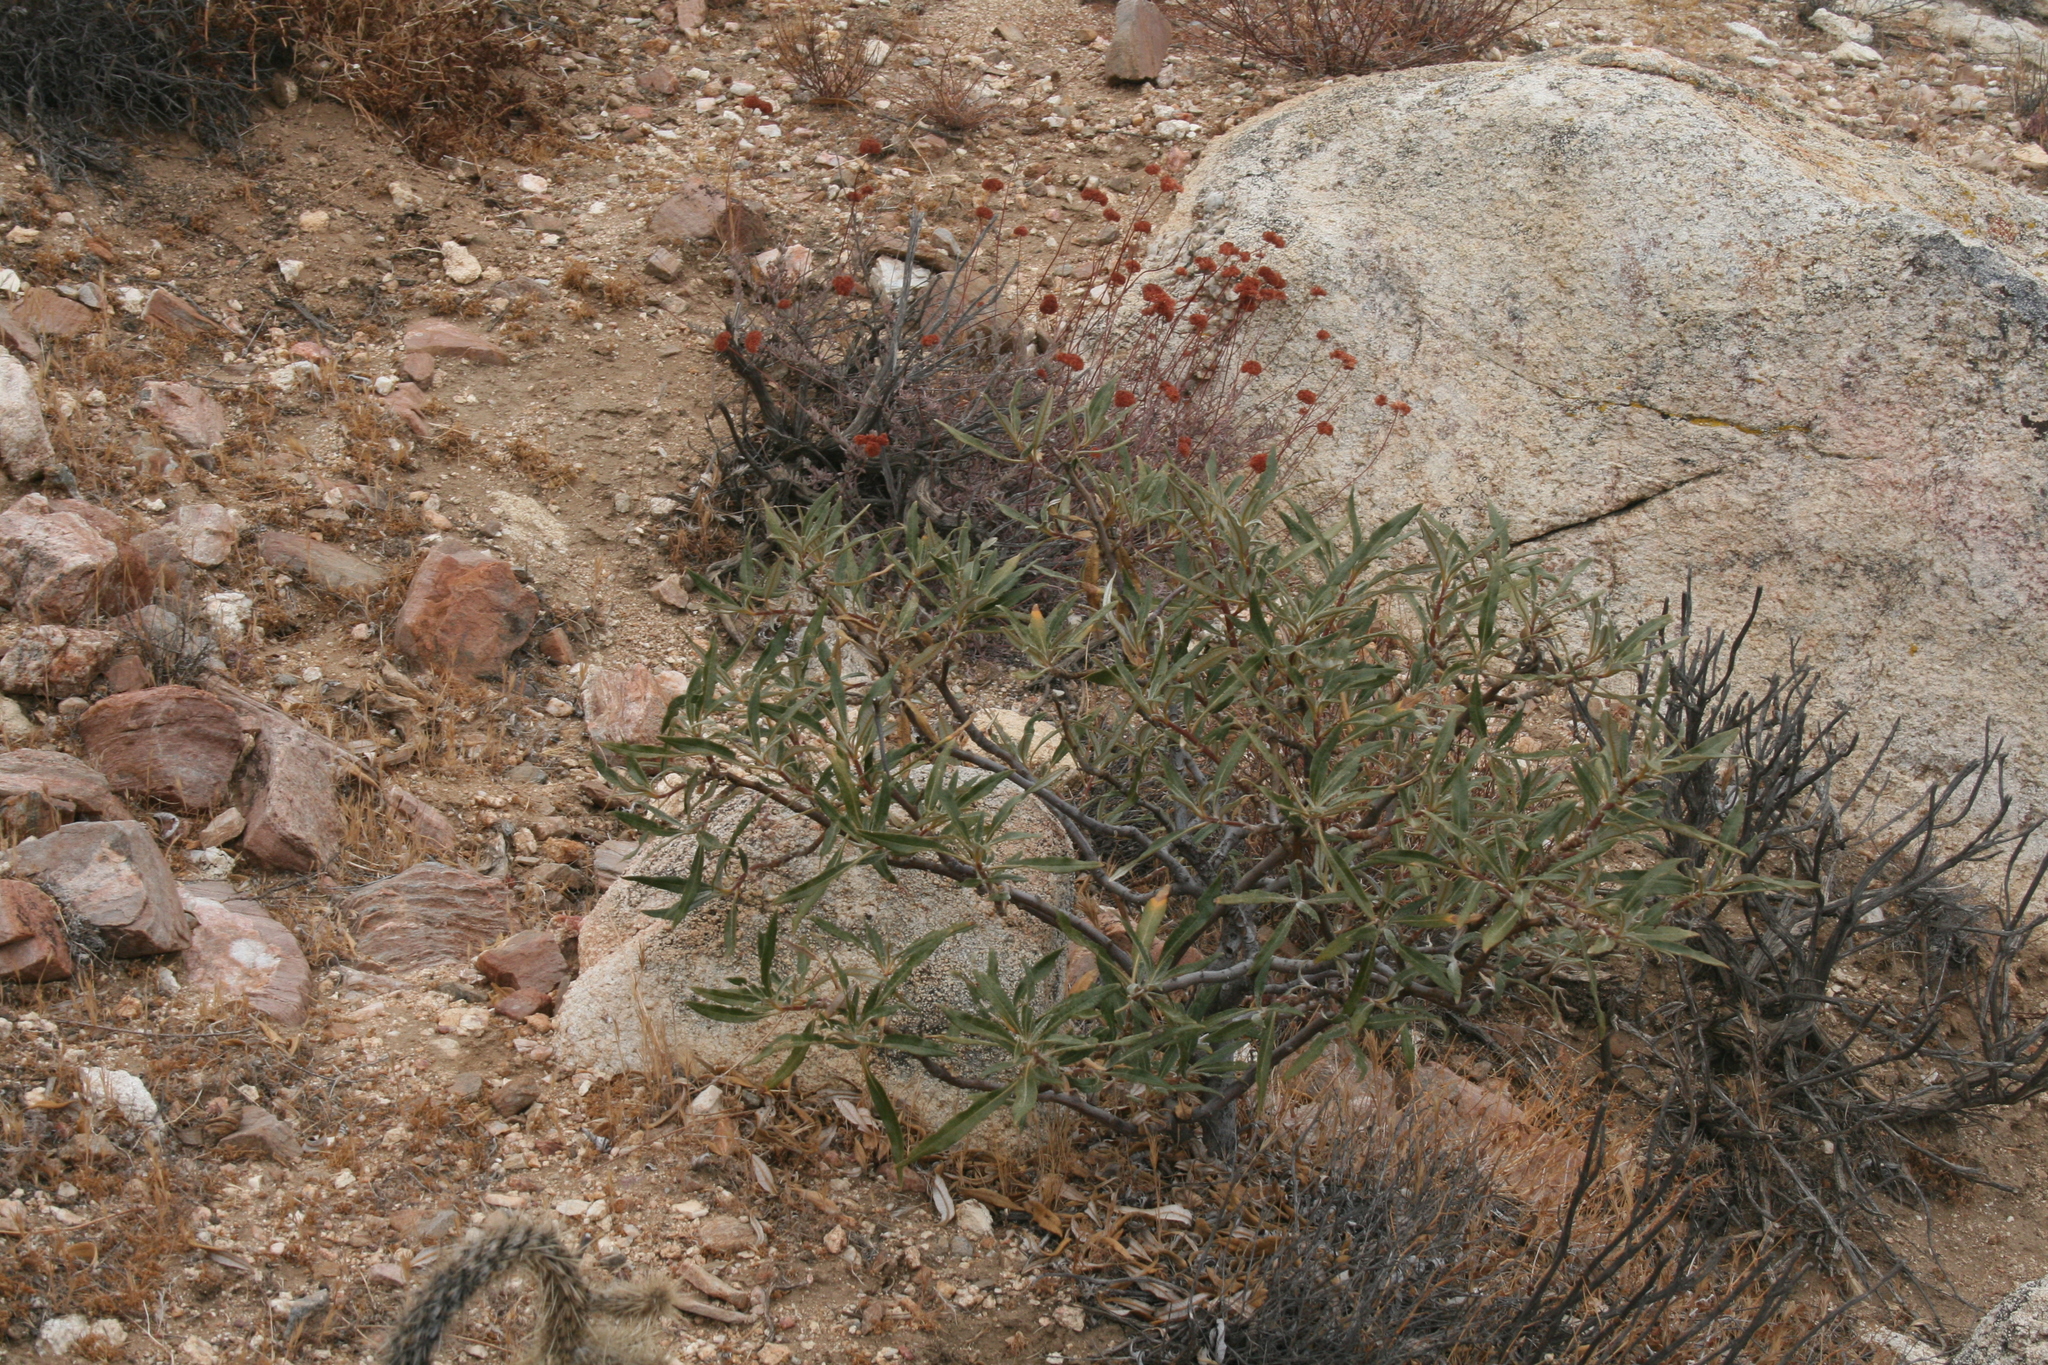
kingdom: Plantae
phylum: Tracheophyta
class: Magnoliopsida
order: Boraginales
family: Namaceae
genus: Eriodictyon
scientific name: Eriodictyon trichocalyx
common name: Hairy yerba-santa
